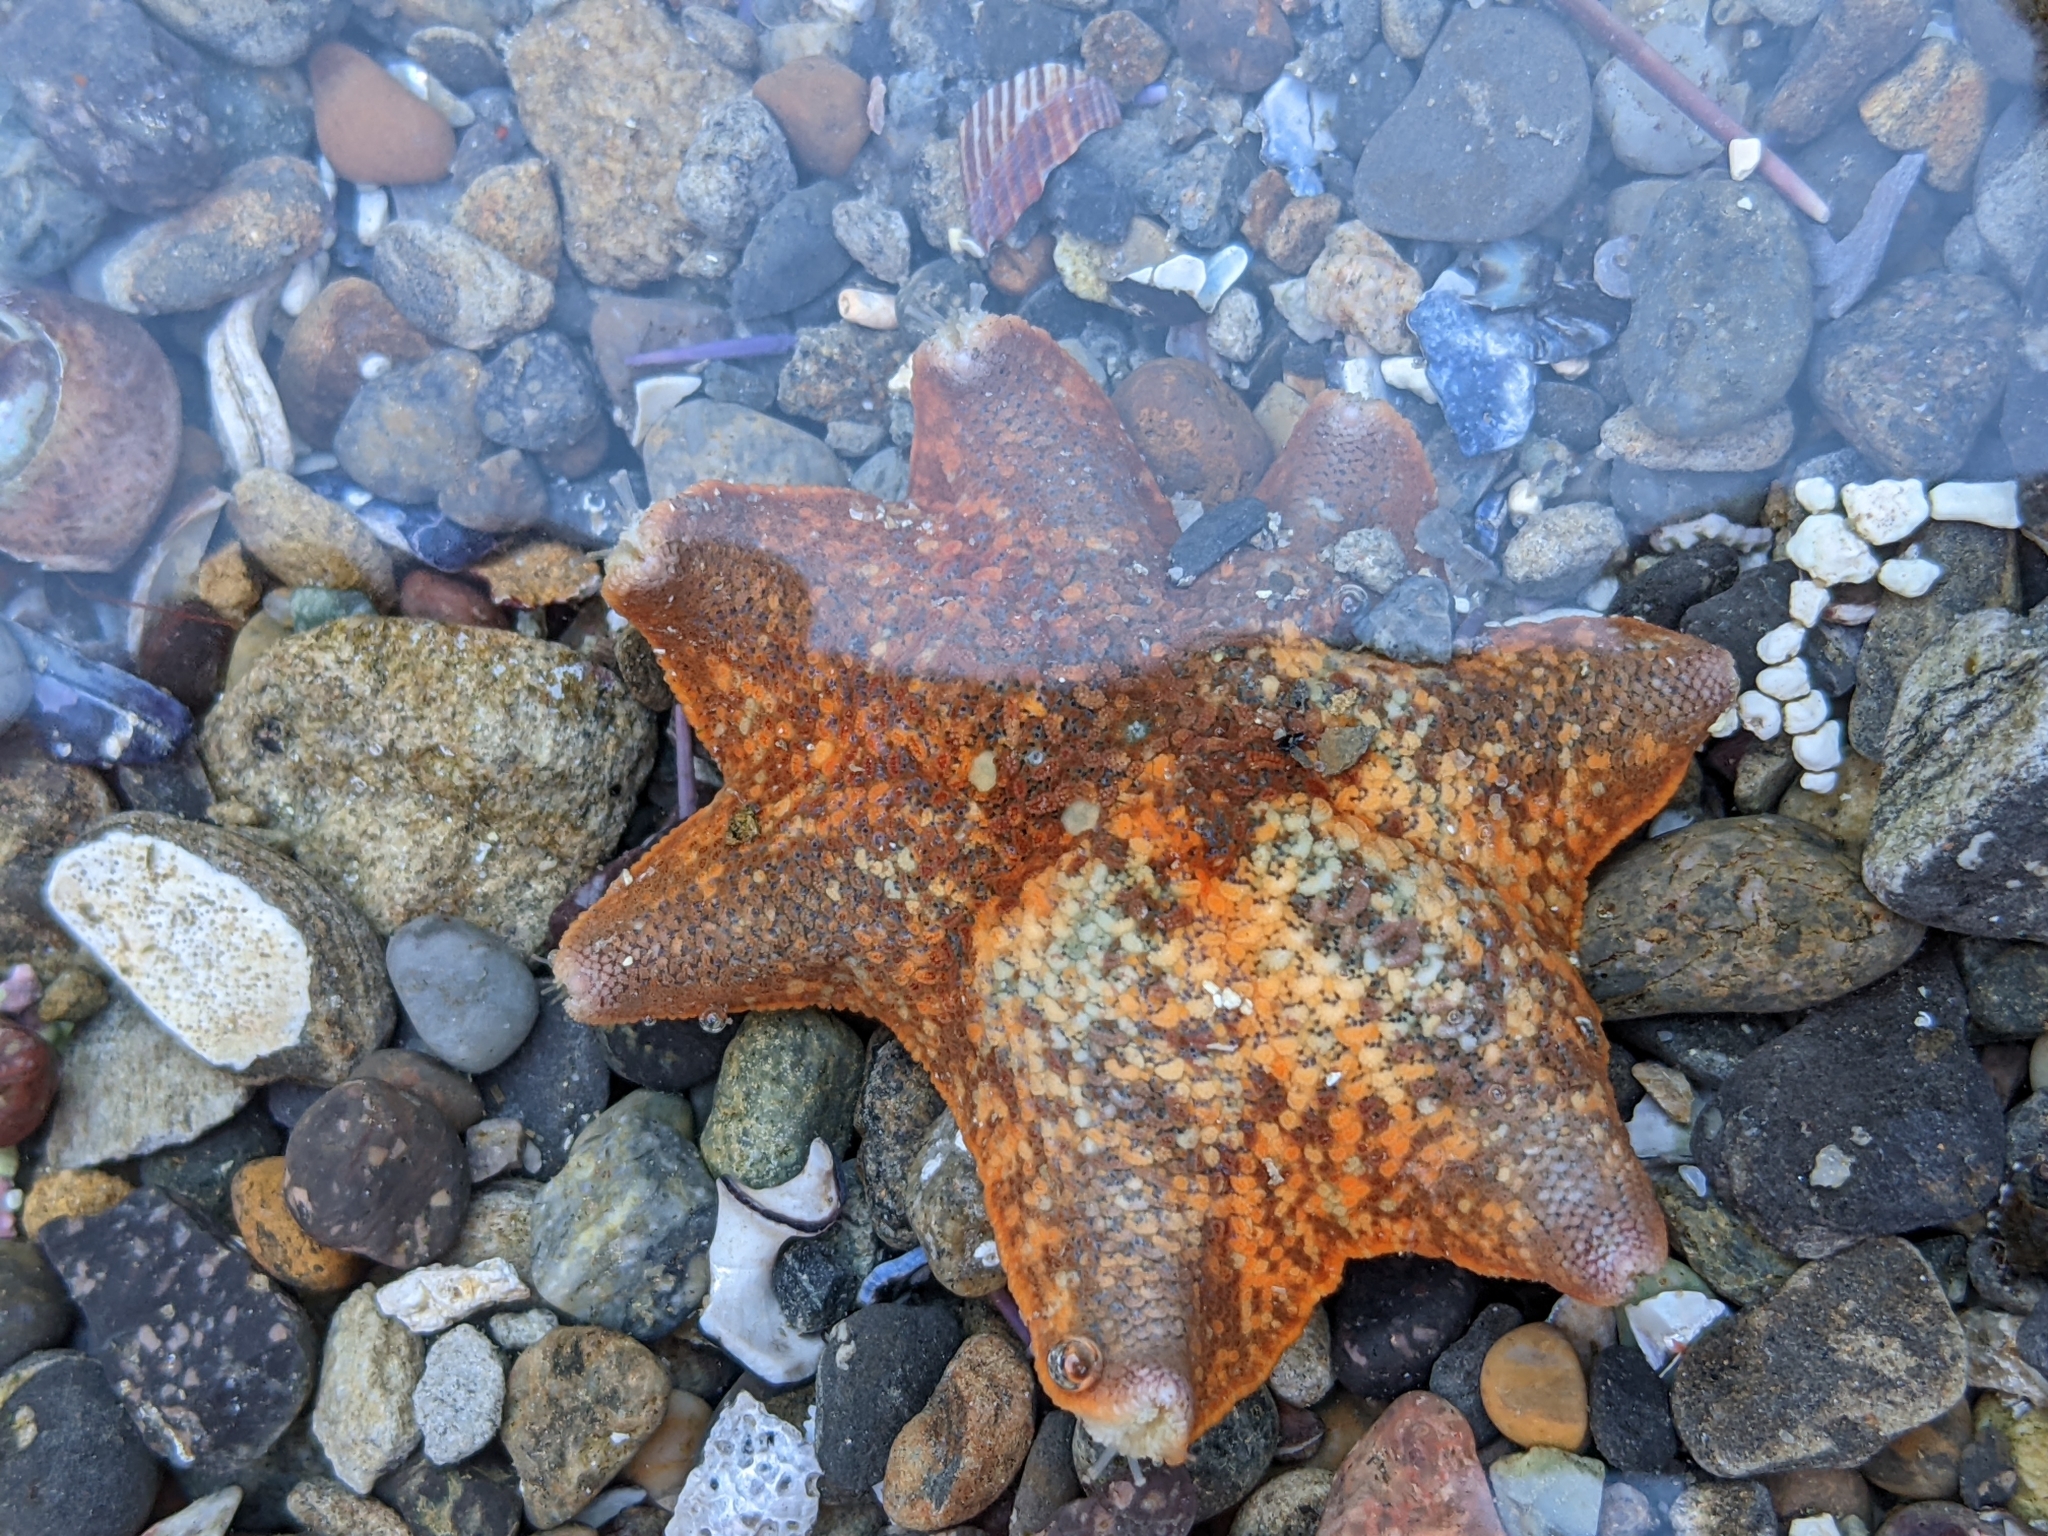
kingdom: Animalia
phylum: Echinodermata
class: Asteroidea
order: Valvatida
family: Asterinidae
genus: Patiria
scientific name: Patiria miniata
